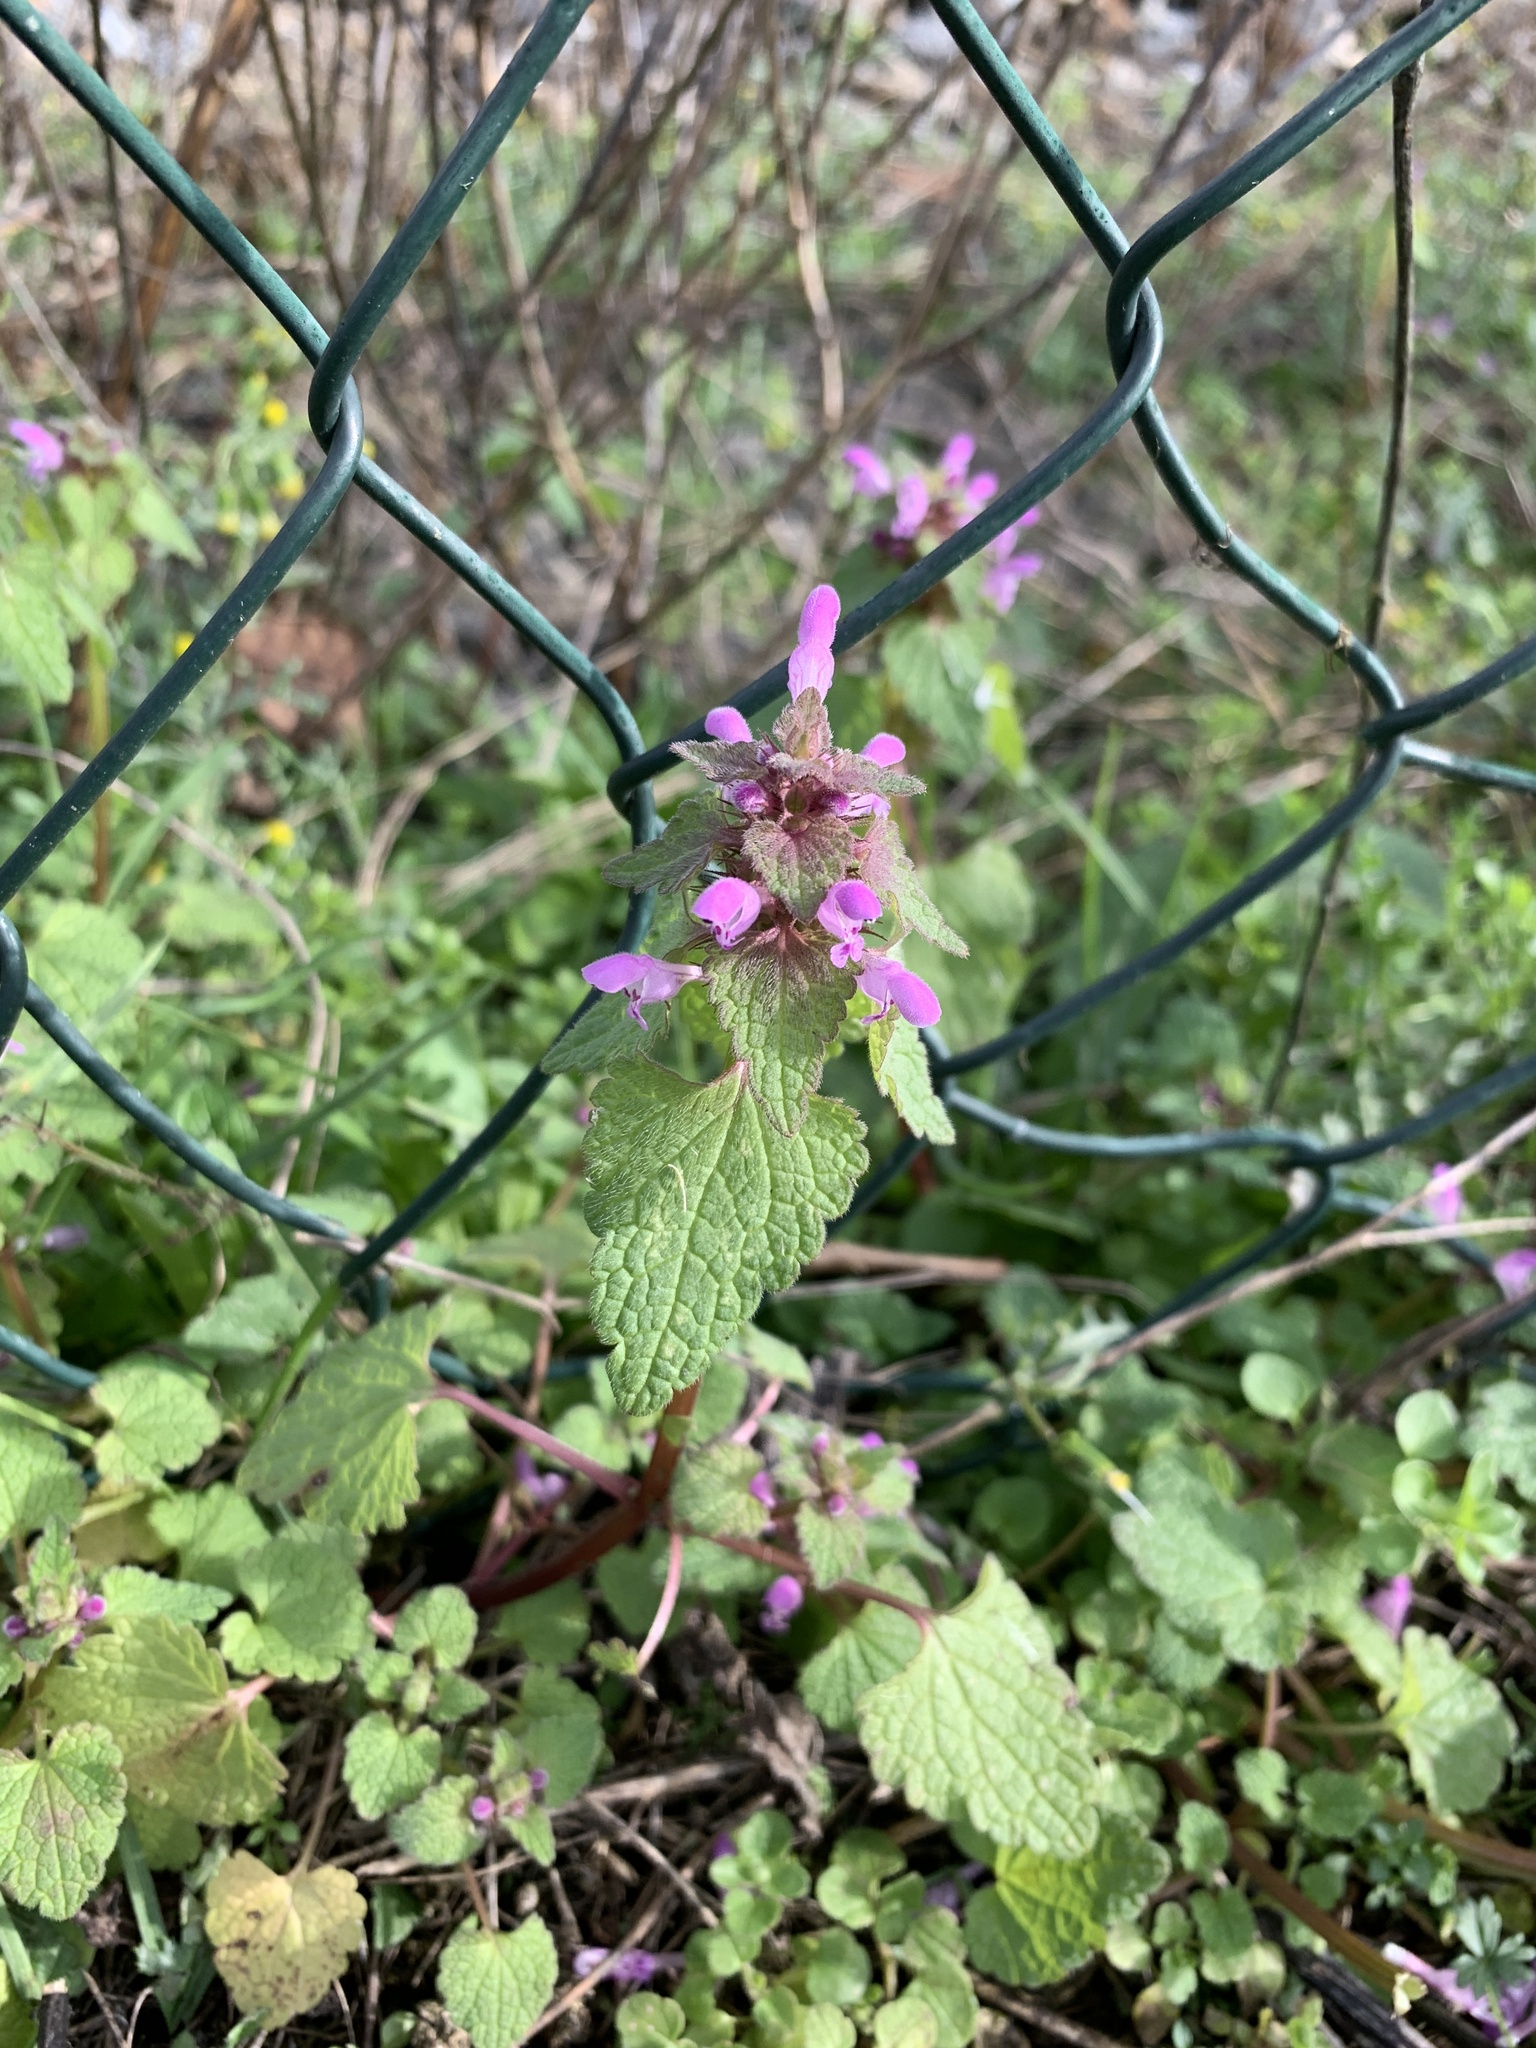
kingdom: Plantae
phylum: Tracheophyta
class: Magnoliopsida
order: Lamiales
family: Lamiaceae
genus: Lamium
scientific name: Lamium purpureum
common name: Red dead-nettle
